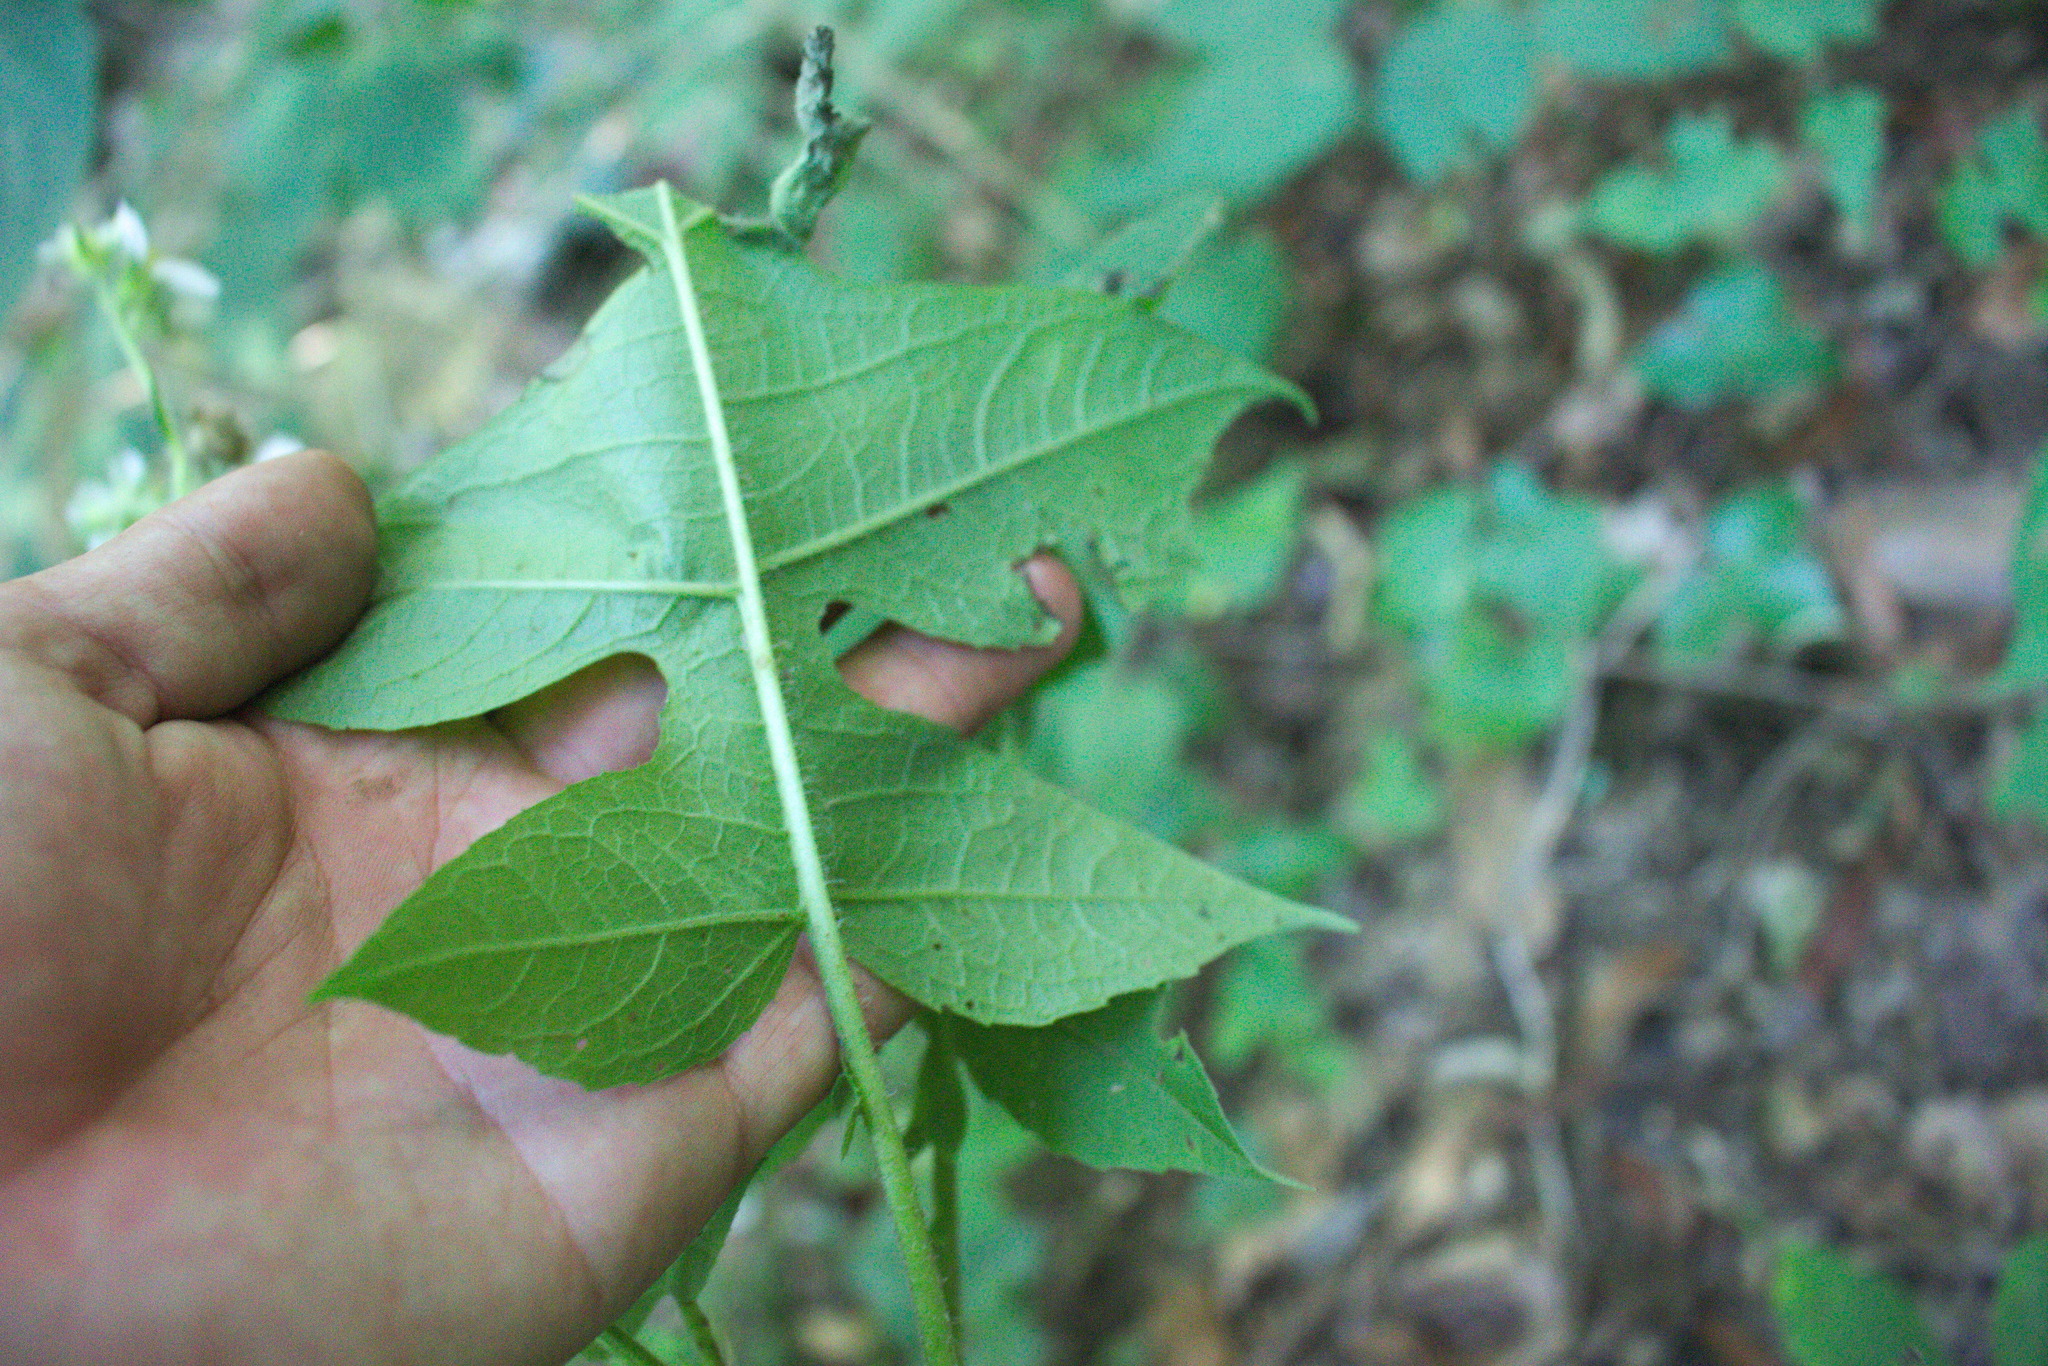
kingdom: Plantae
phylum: Tracheophyta
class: Magnoliopsida
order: Asterales
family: Asteraceae
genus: Polymnia
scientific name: Polymnia canadensis
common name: Pale-flowered leafcup
